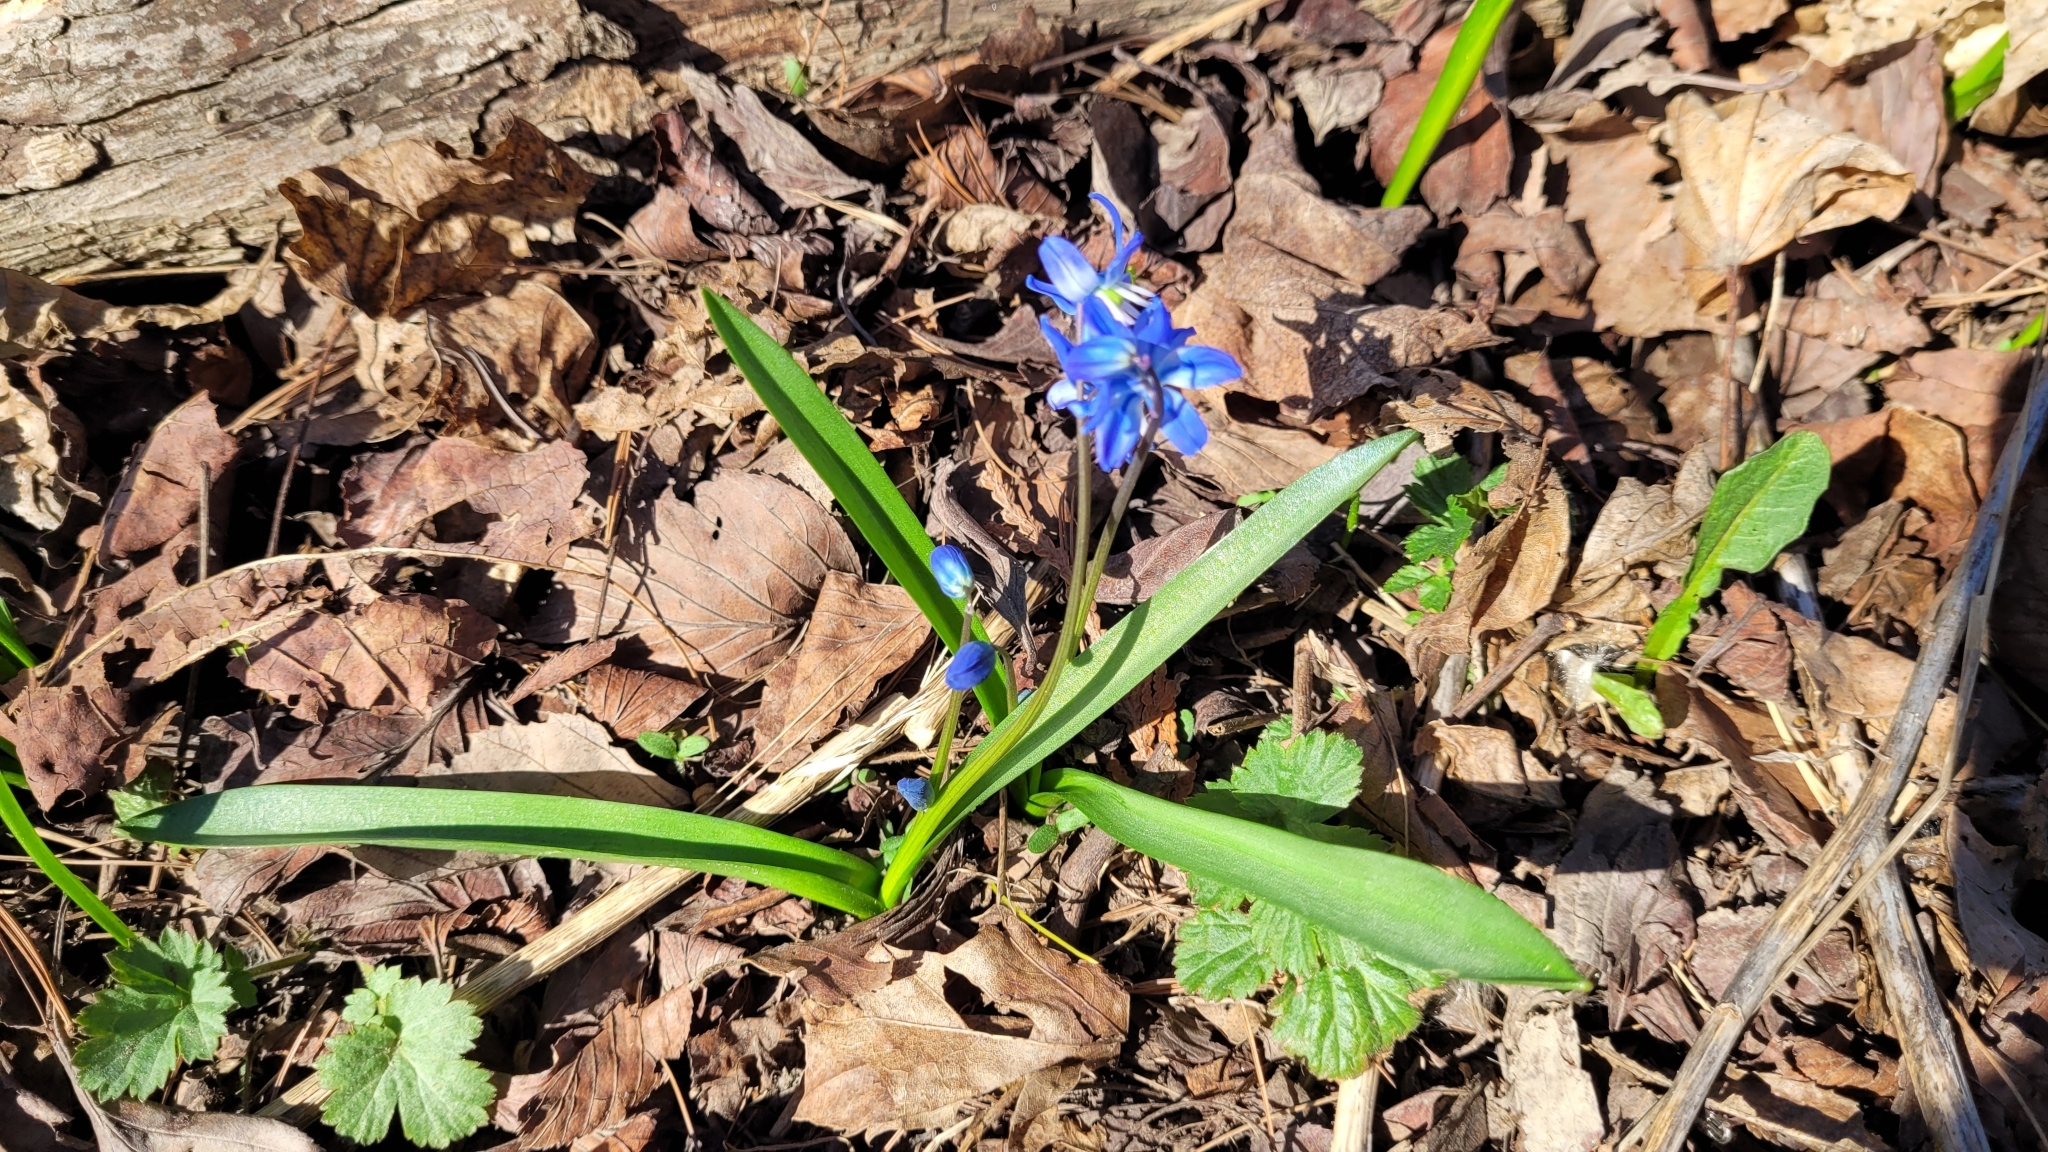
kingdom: Plantae
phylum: Tracheophyta
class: Liliopsida
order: Asparagales
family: Asparagaceae
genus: Scilla
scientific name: Scilla siberica
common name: Siberian squill
